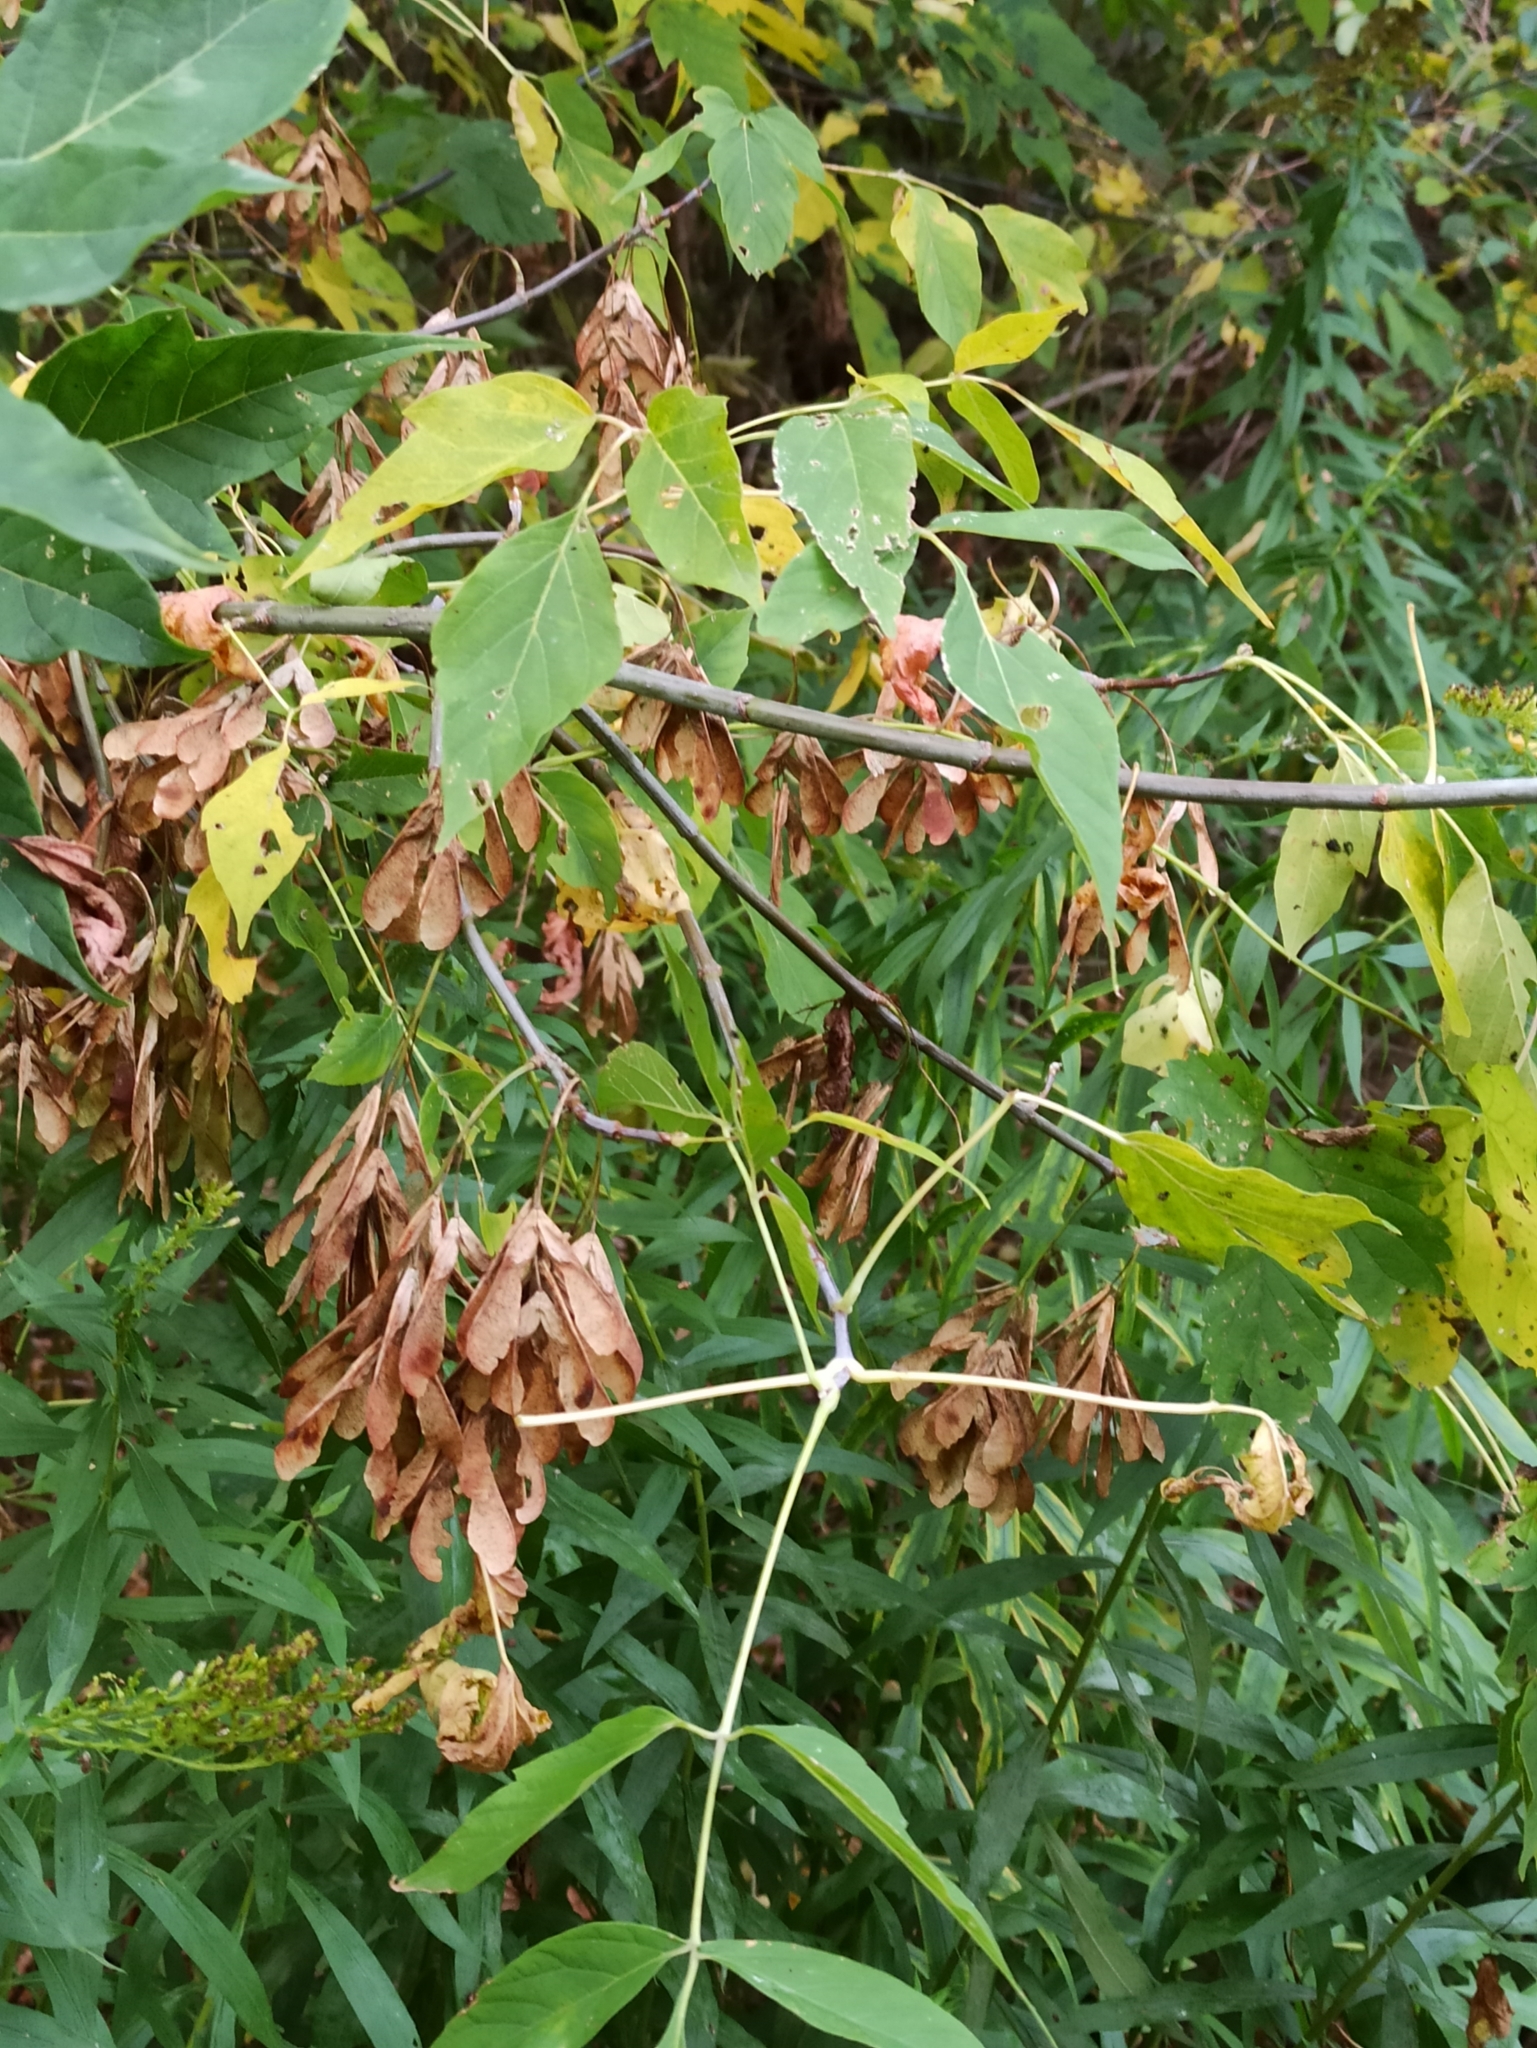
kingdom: Plantae
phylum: Tracheophyta
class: Magnoliopsida
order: Sapindales
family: Sapindaceae
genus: Acer
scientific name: Acer negundo
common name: Ashleaf maple
